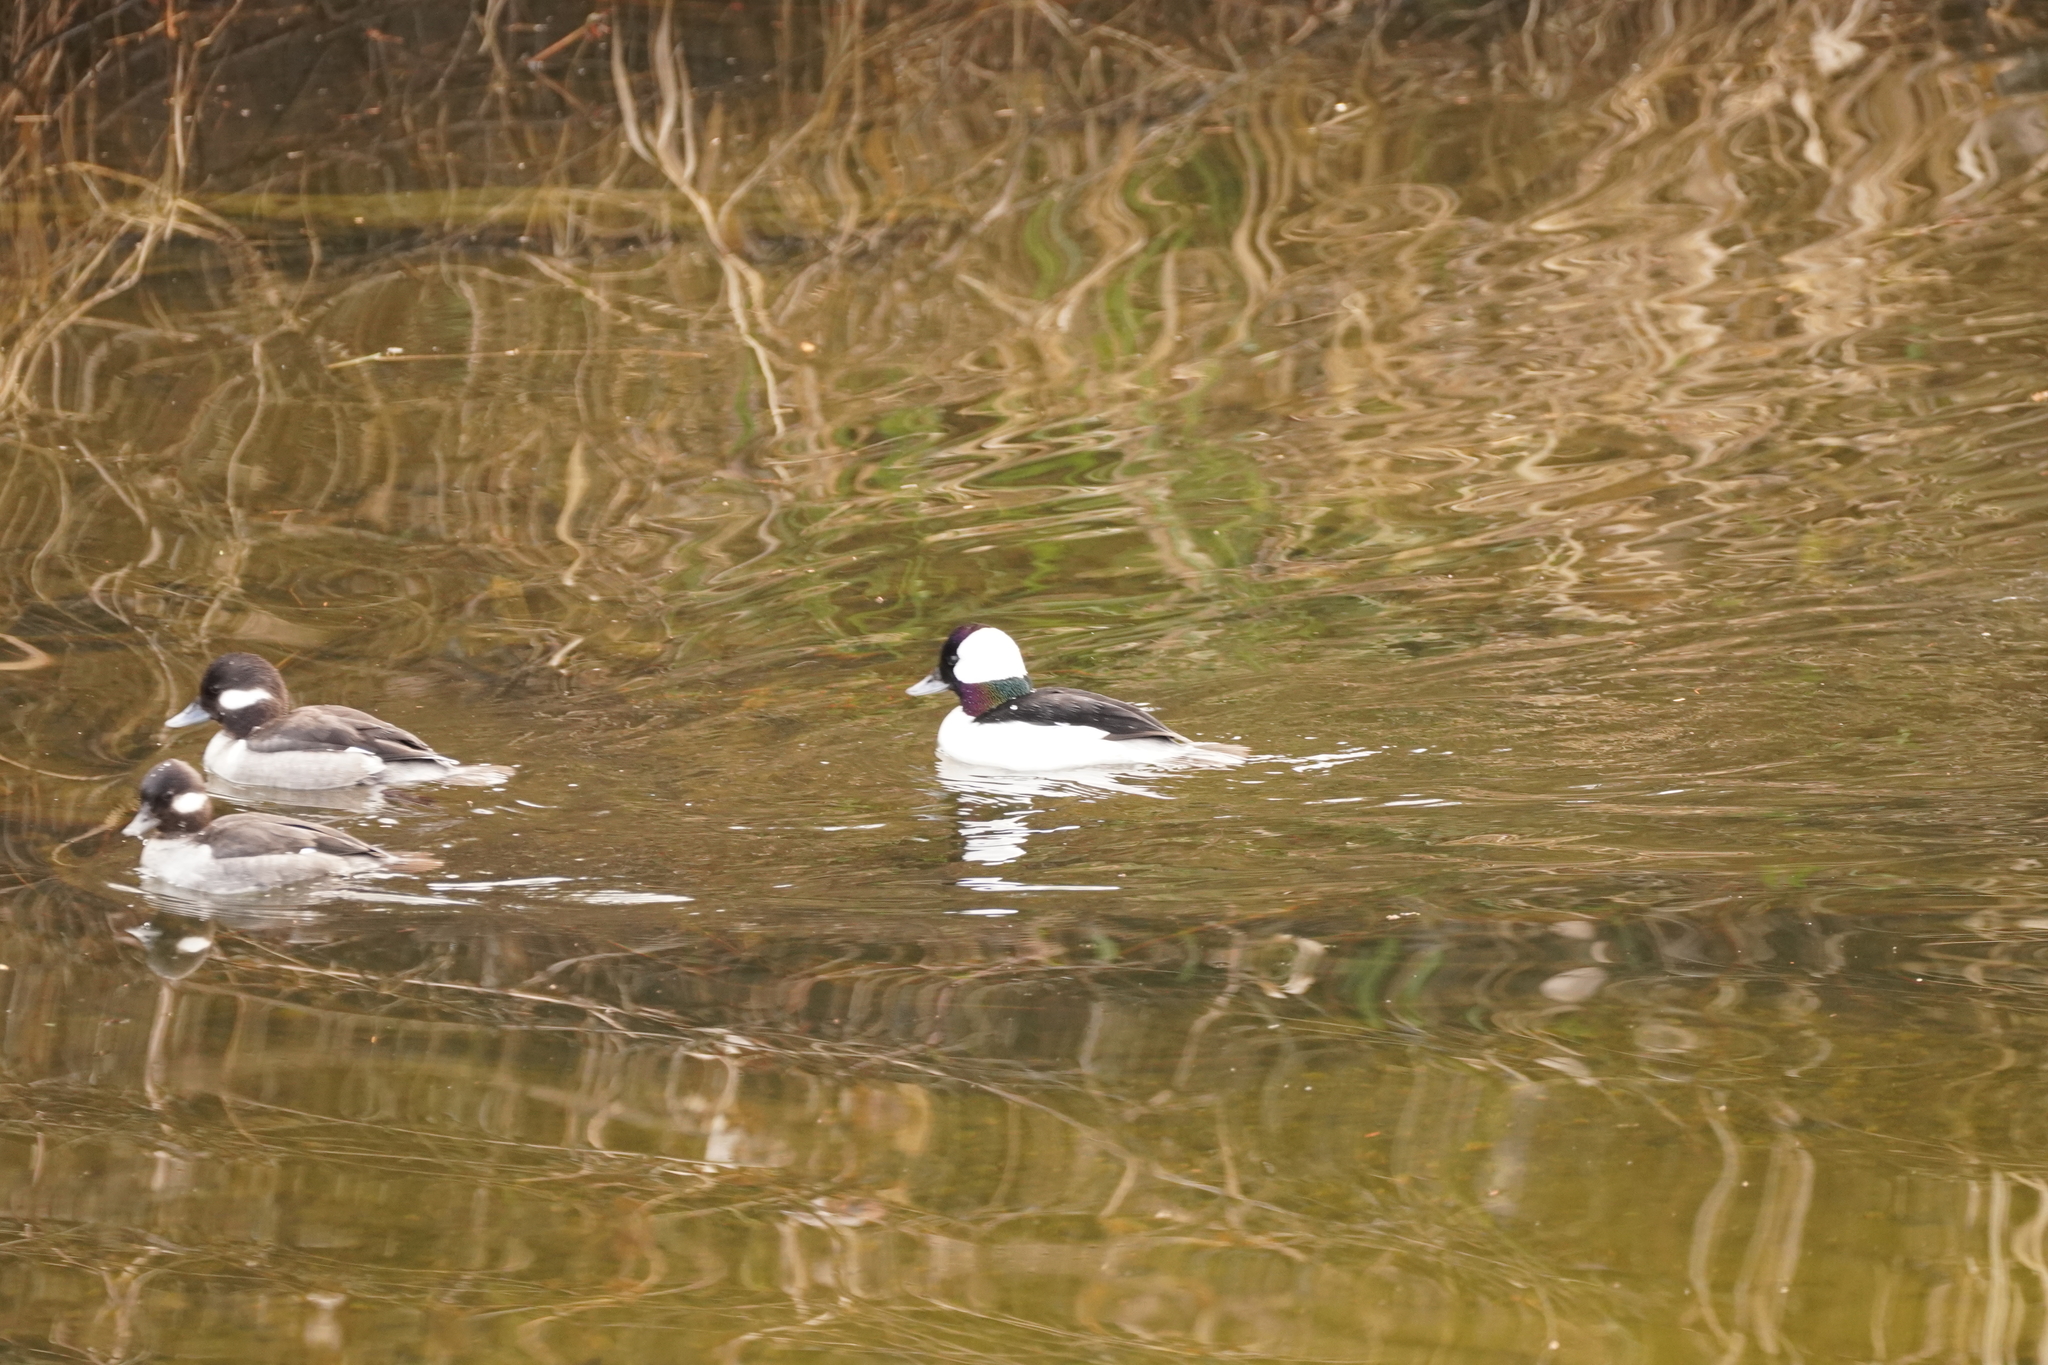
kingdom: Animalia
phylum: Chordata
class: Aves
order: Anseriformes
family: Anatidae
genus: Bucephala
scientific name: Bucephala albeola
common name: Bufflehead
